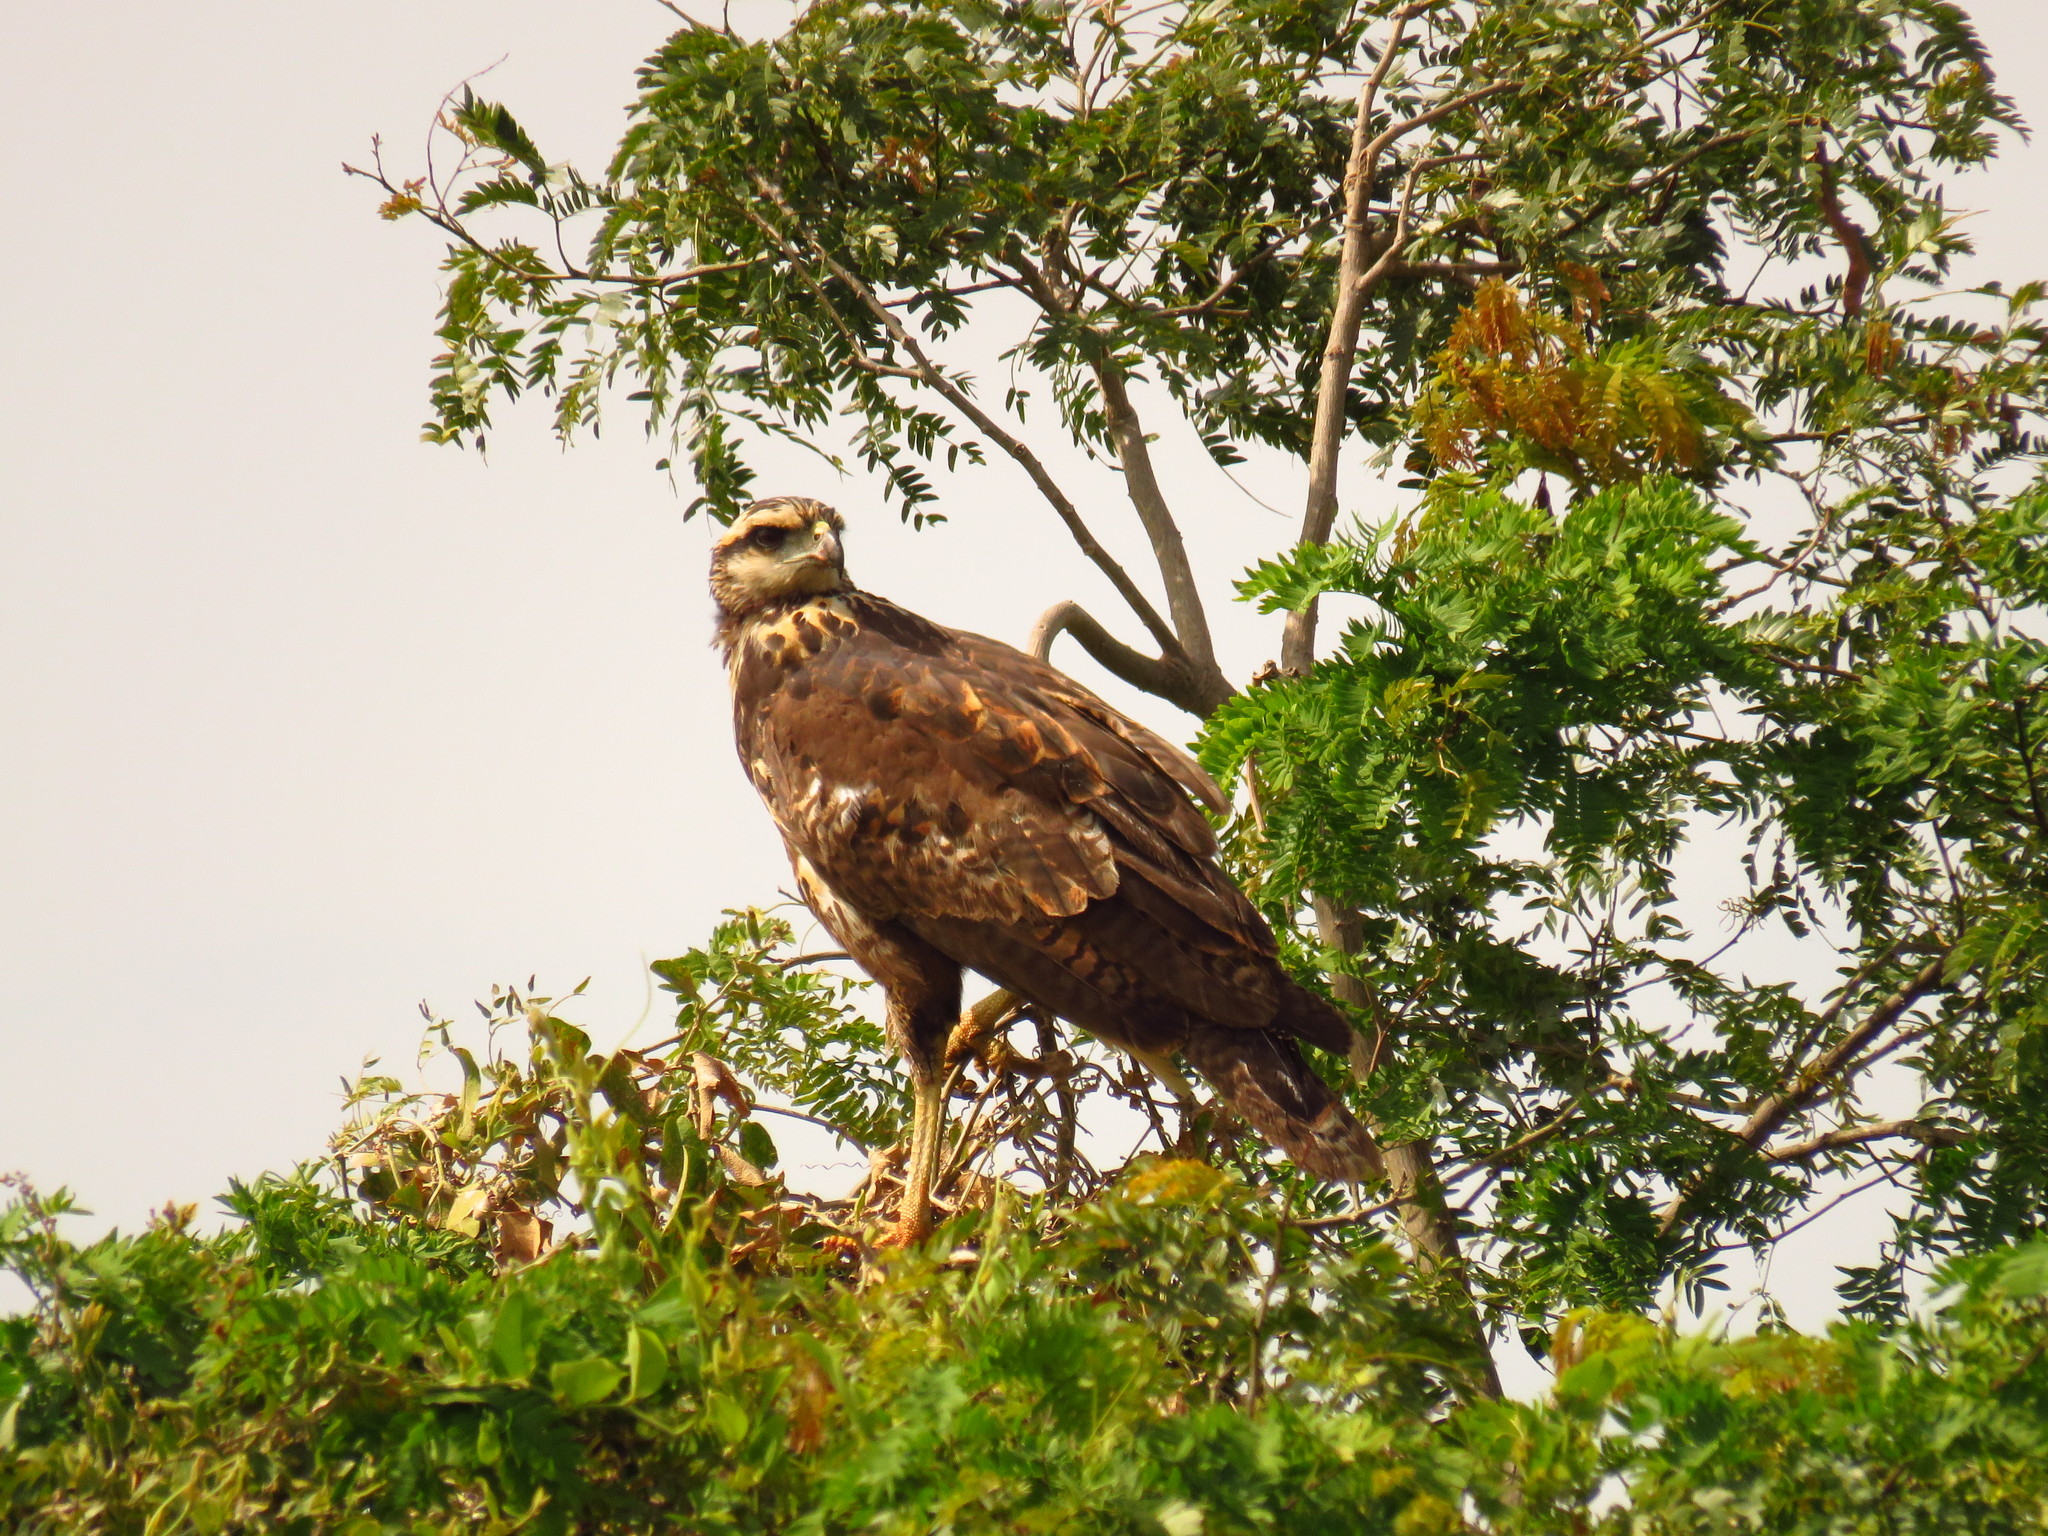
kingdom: Animalia
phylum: Chordata
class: Aves
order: Accipitriformes
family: Accipitridae
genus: Buteogallus
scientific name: Buteogallus meridionalis
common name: Savanna hawk
